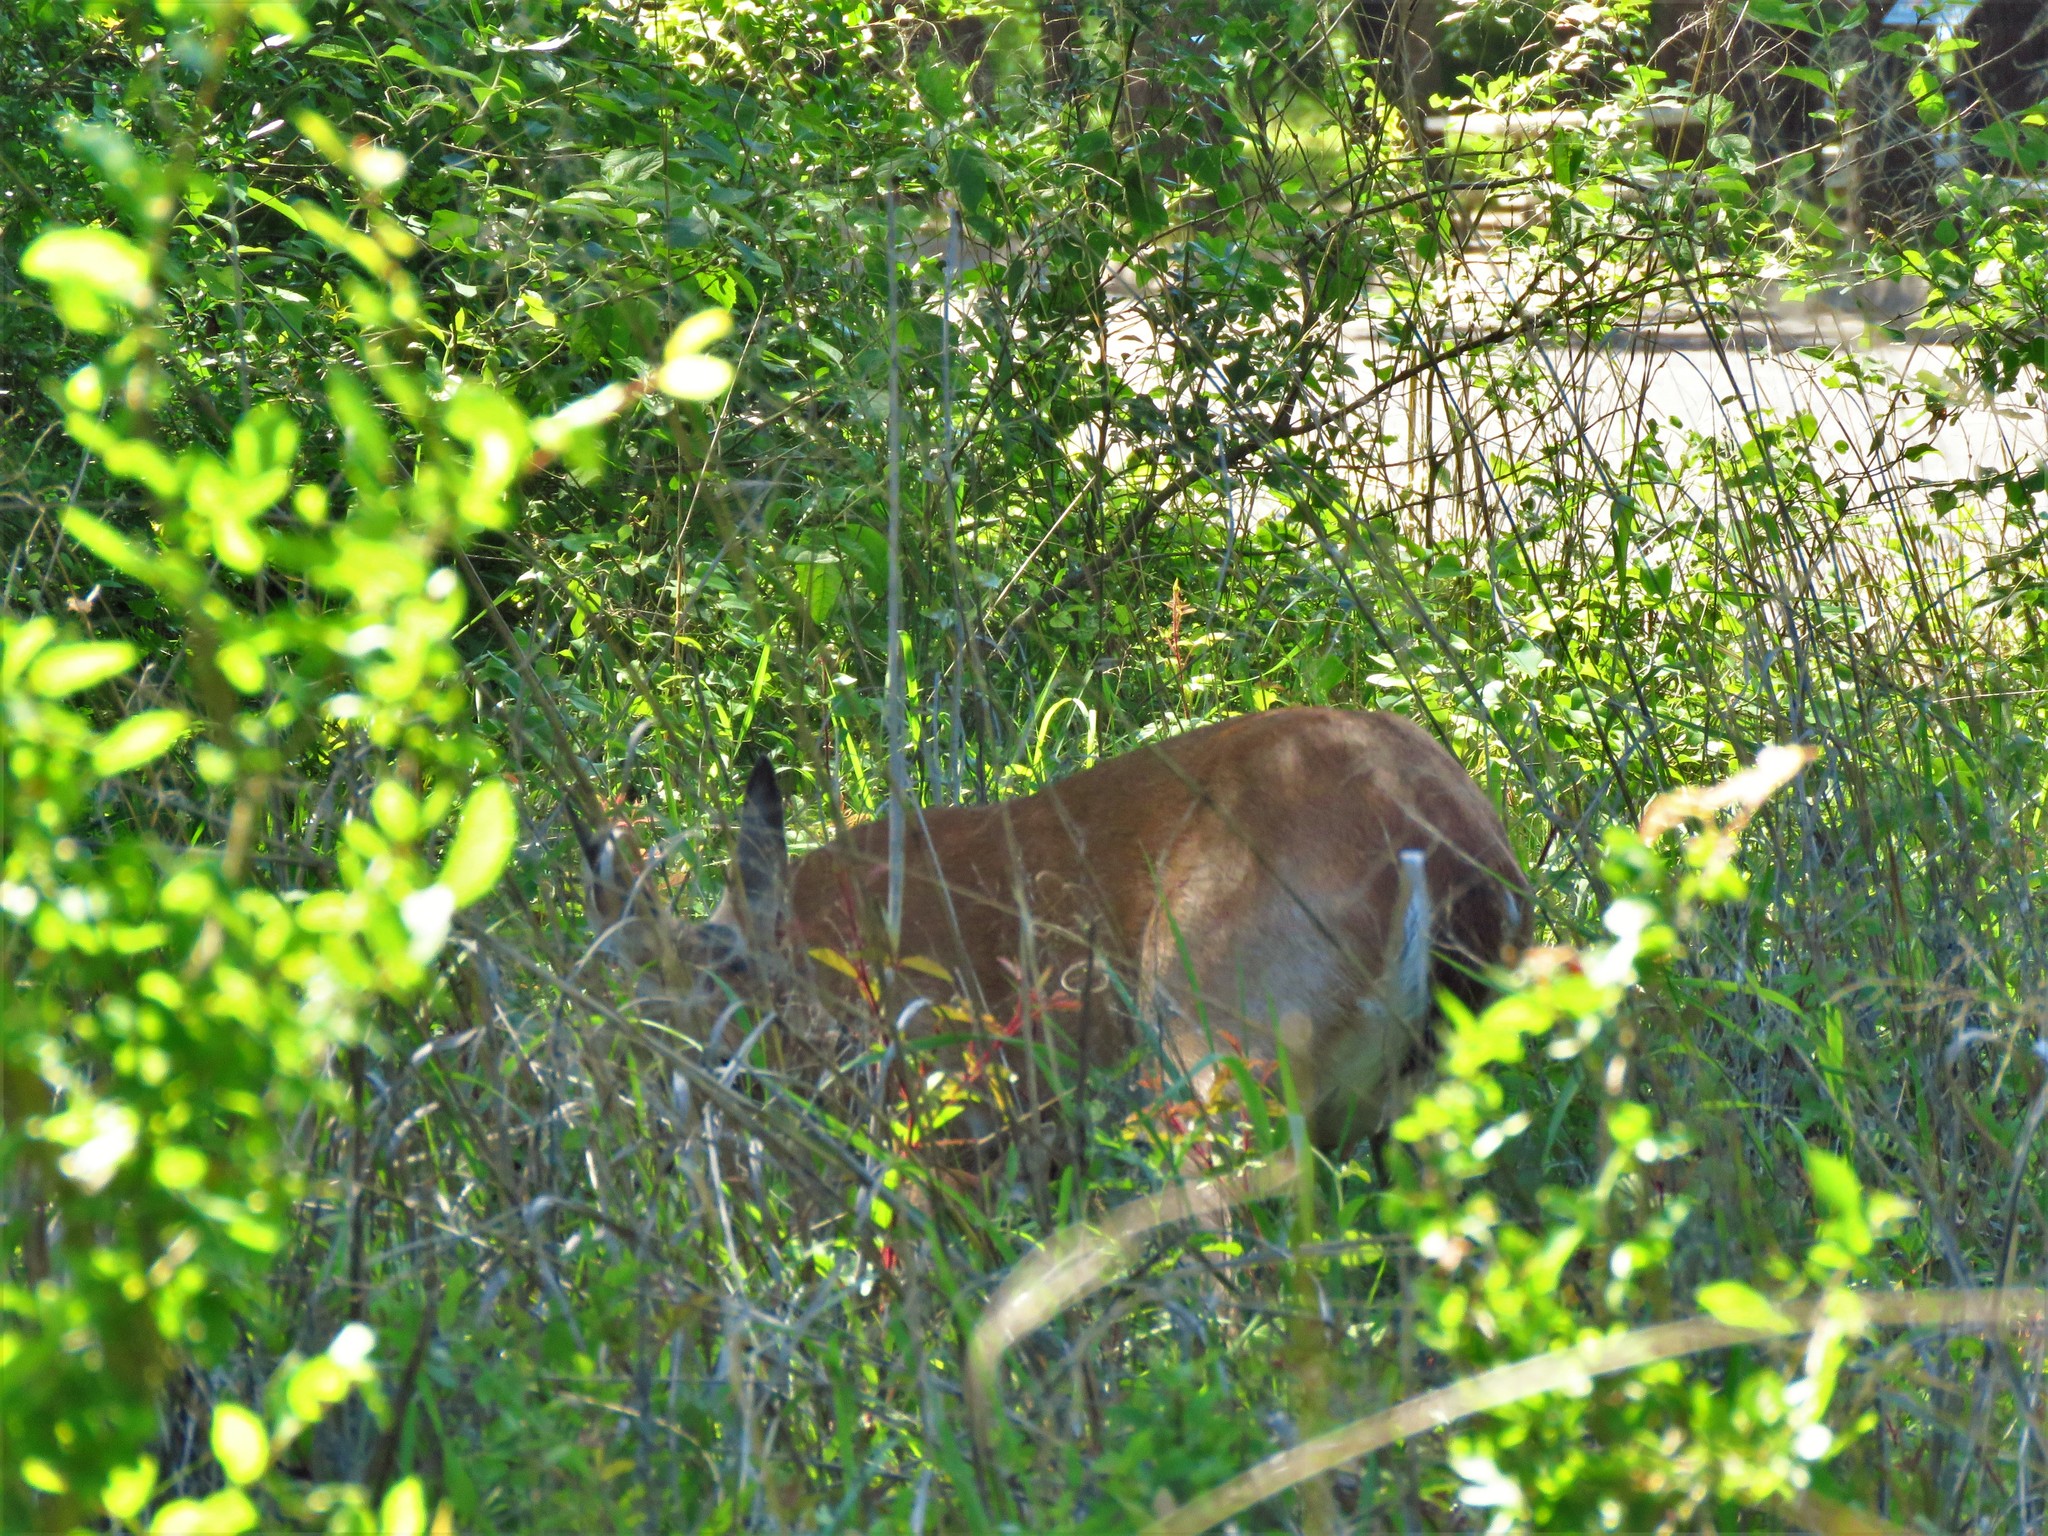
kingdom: Animalia
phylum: Chordata
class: Mammalia
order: Artiodactyla
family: Cervidae
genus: Odocoileus
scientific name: Odocoileus virginianus
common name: White-tailed deer
